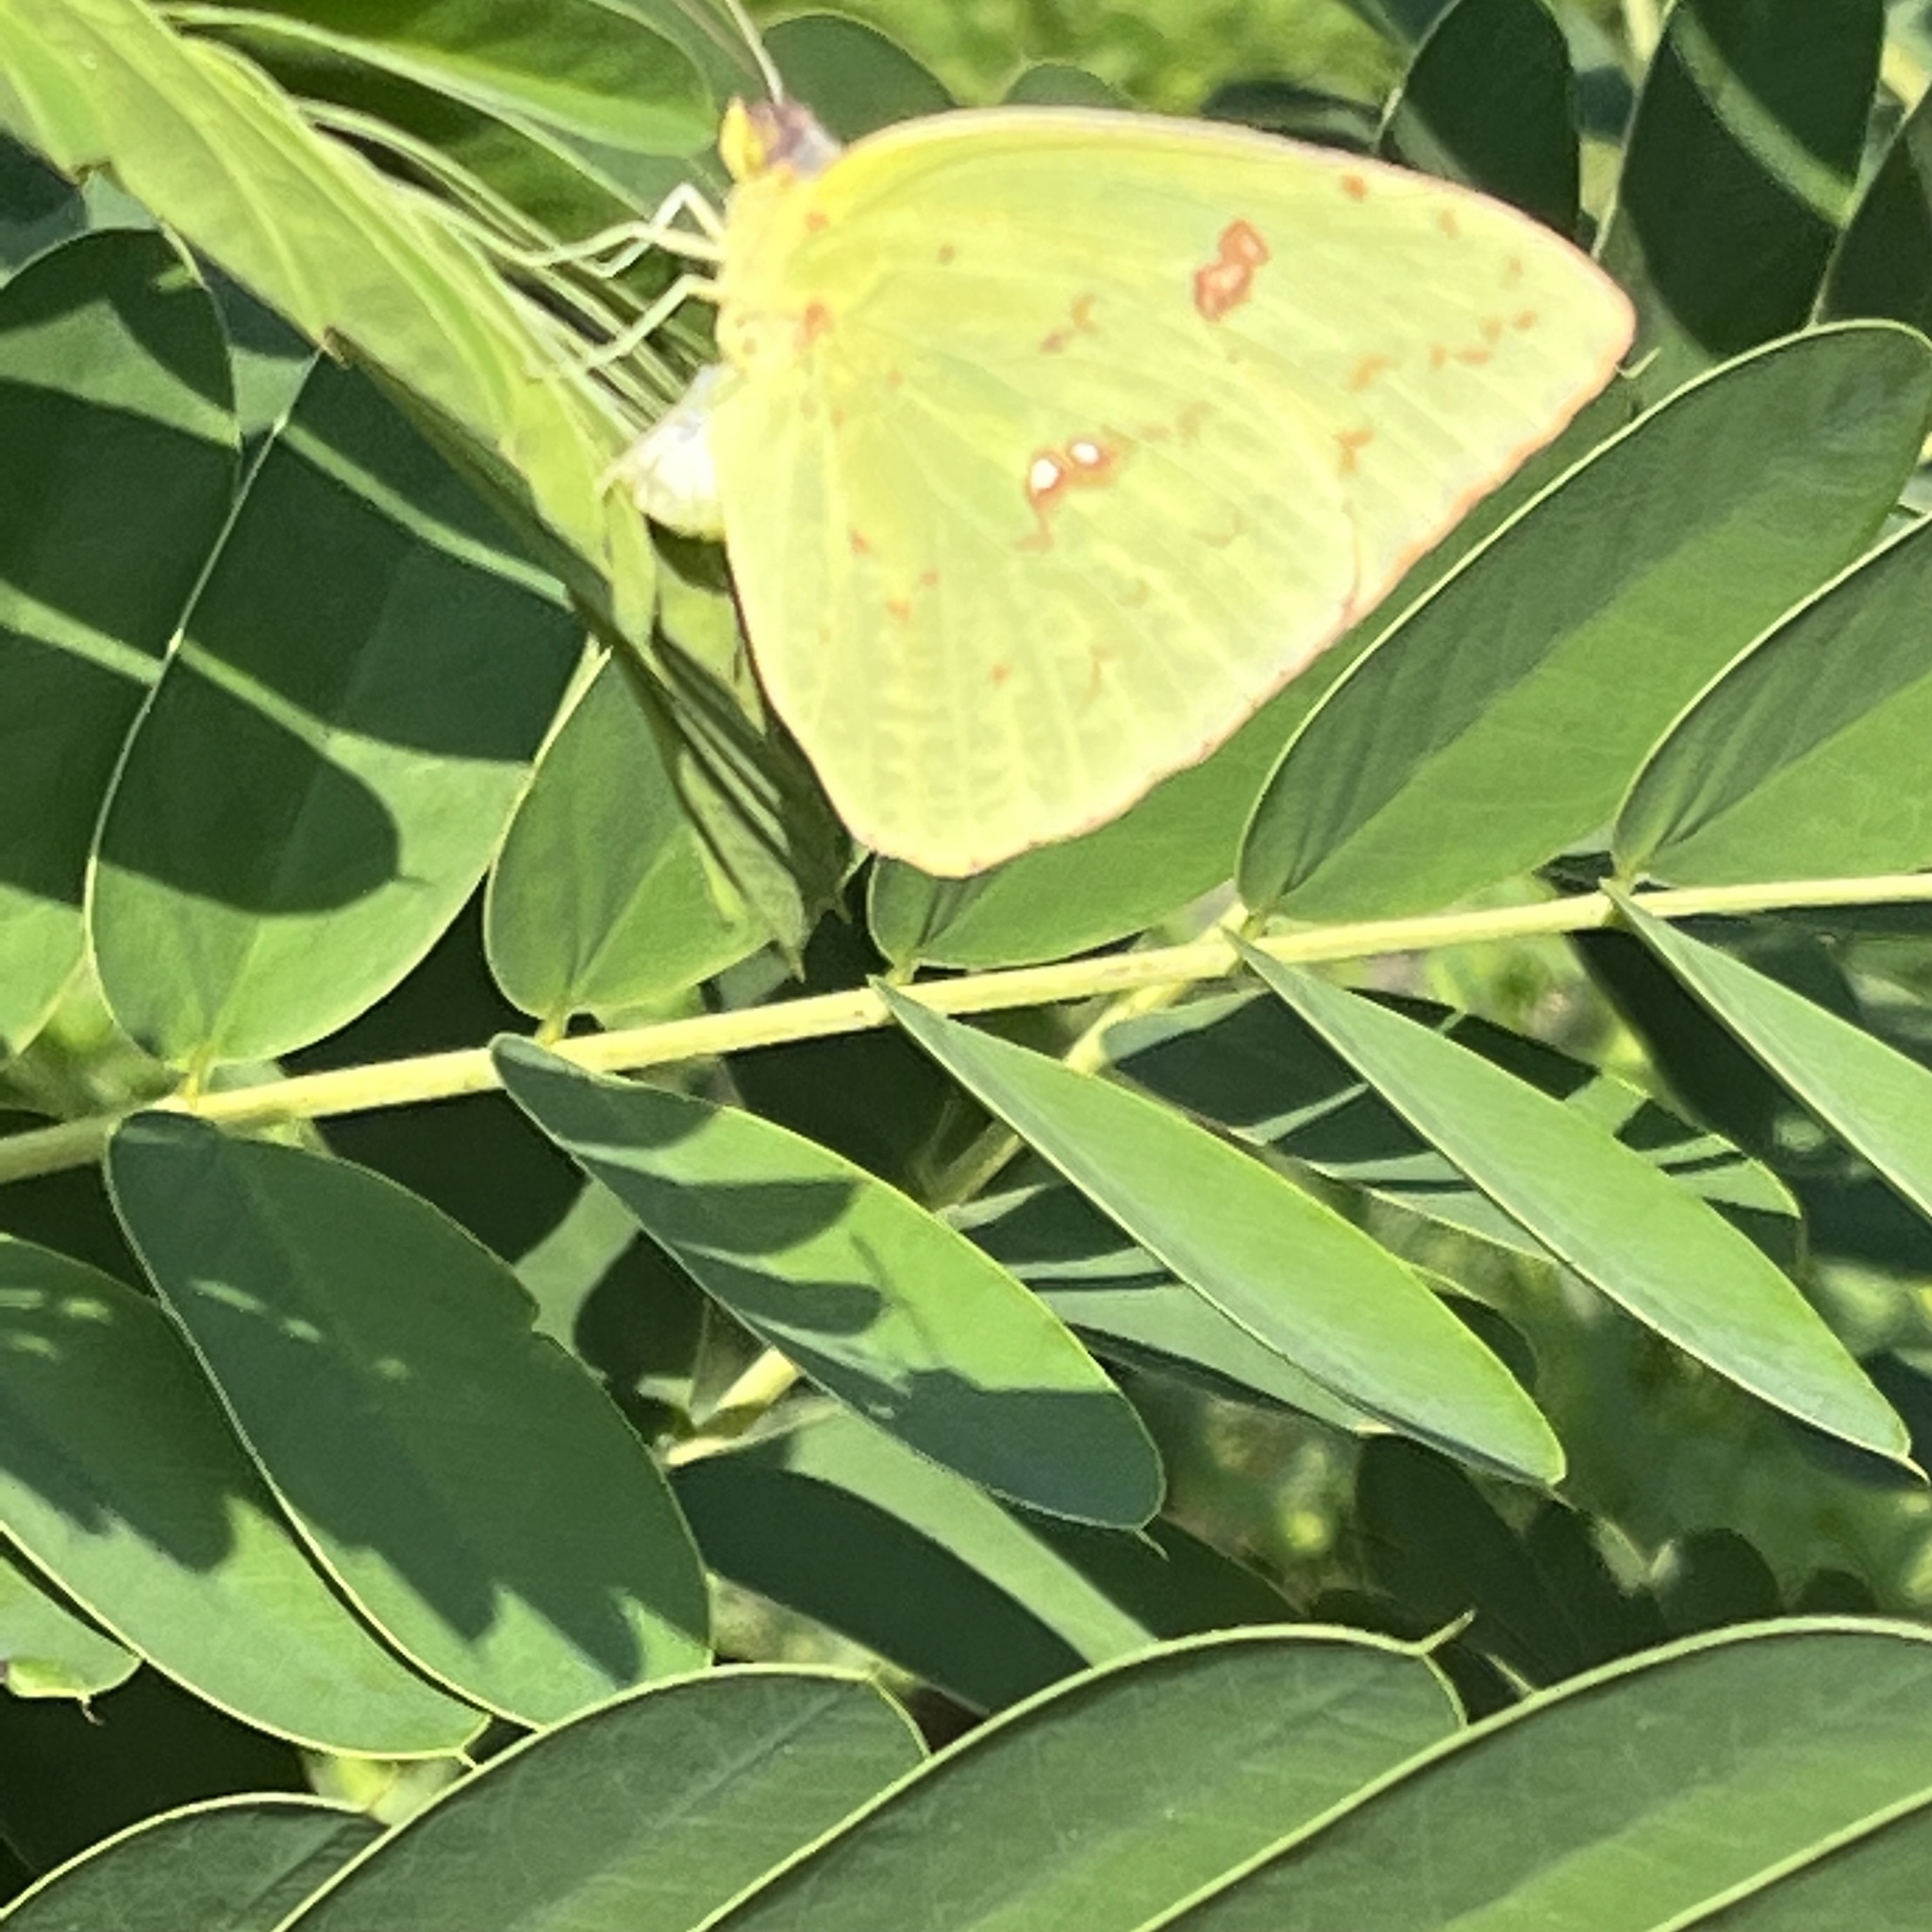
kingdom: Animalia
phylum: Arthropoda
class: Insecta
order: Lepidoptera
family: Pieridae
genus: Phoebis
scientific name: Phoebis sennae
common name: Cloudless sulphur
